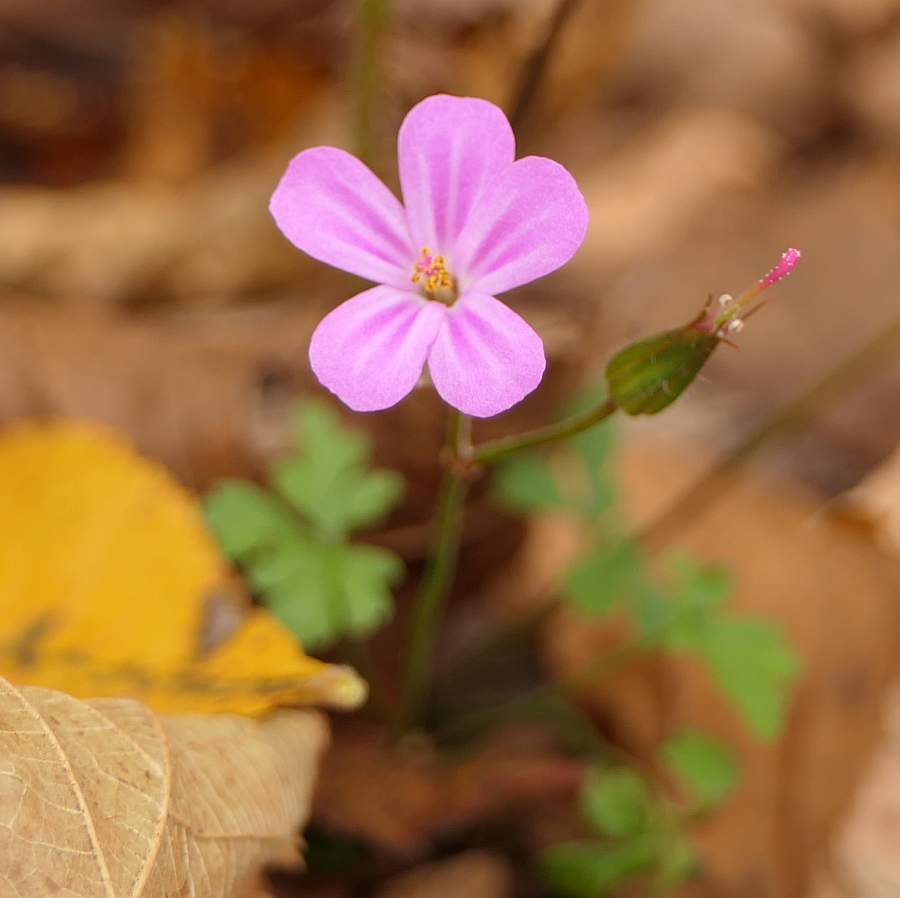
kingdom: Plantae
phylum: Tracheophyta
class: Magnoliopsida
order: Geraniales
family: Geraniaceae
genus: Geranium
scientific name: Geranium robertianum
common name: Herb-robert
